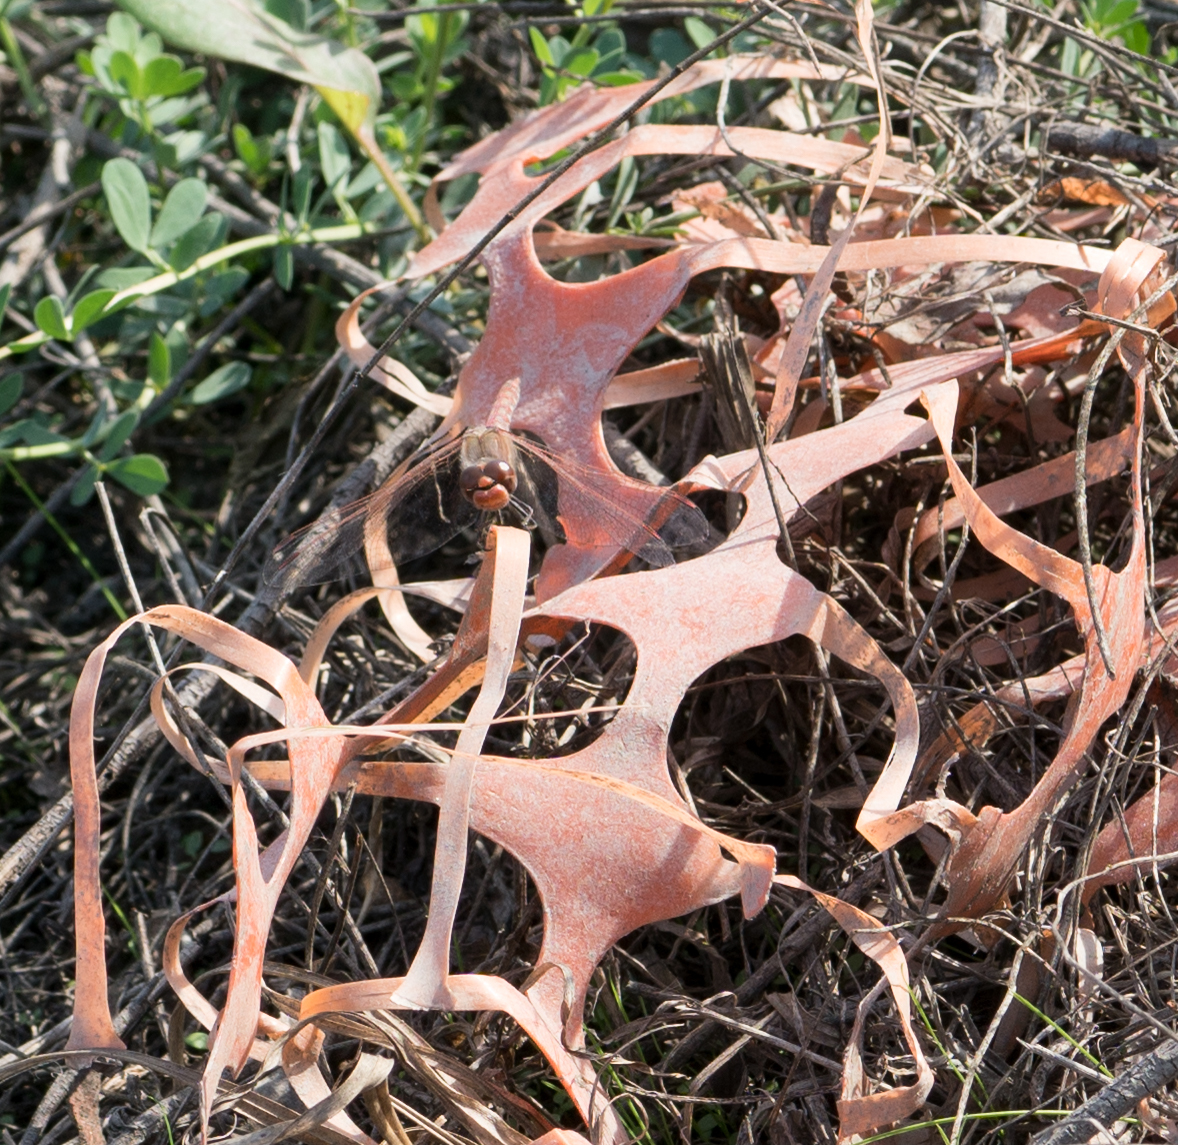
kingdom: Animalia
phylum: Arthropoda
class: Insecta
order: Odonata
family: Libellulidae
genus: Sympetrum
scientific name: Sympetrum corruptum
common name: Variegated meadowhawk
